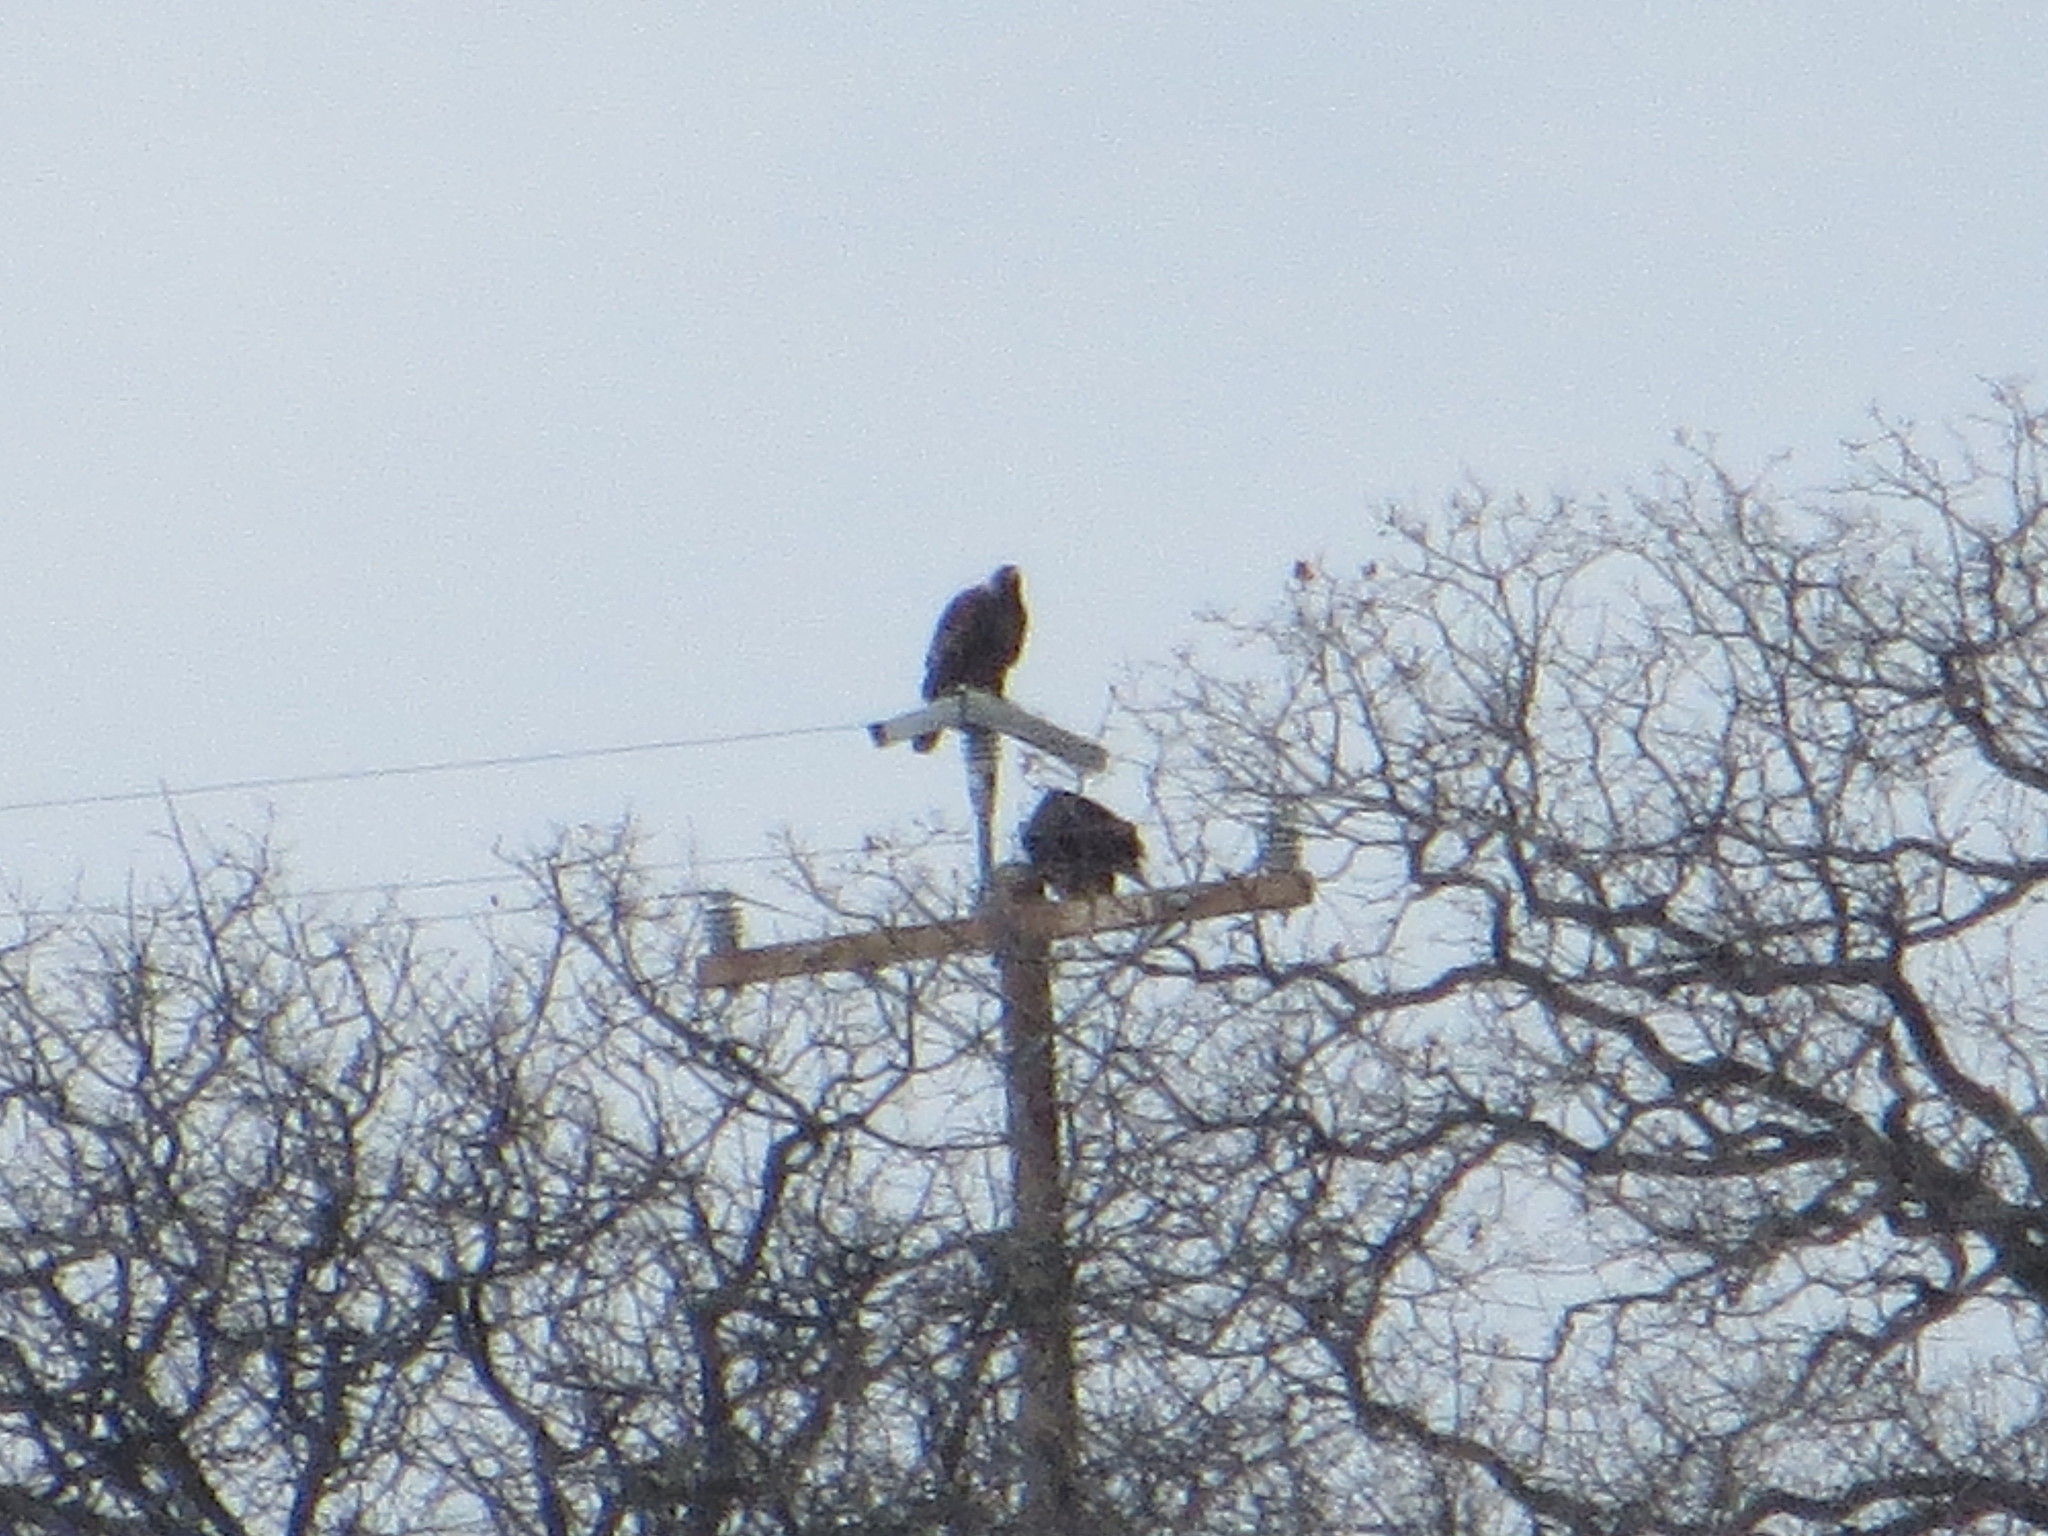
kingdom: Animalia
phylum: Chordata
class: Aves
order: Accipitriformes
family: Accipitridae
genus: Aquila
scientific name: Aquila chrysaetos
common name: Golden eagle
